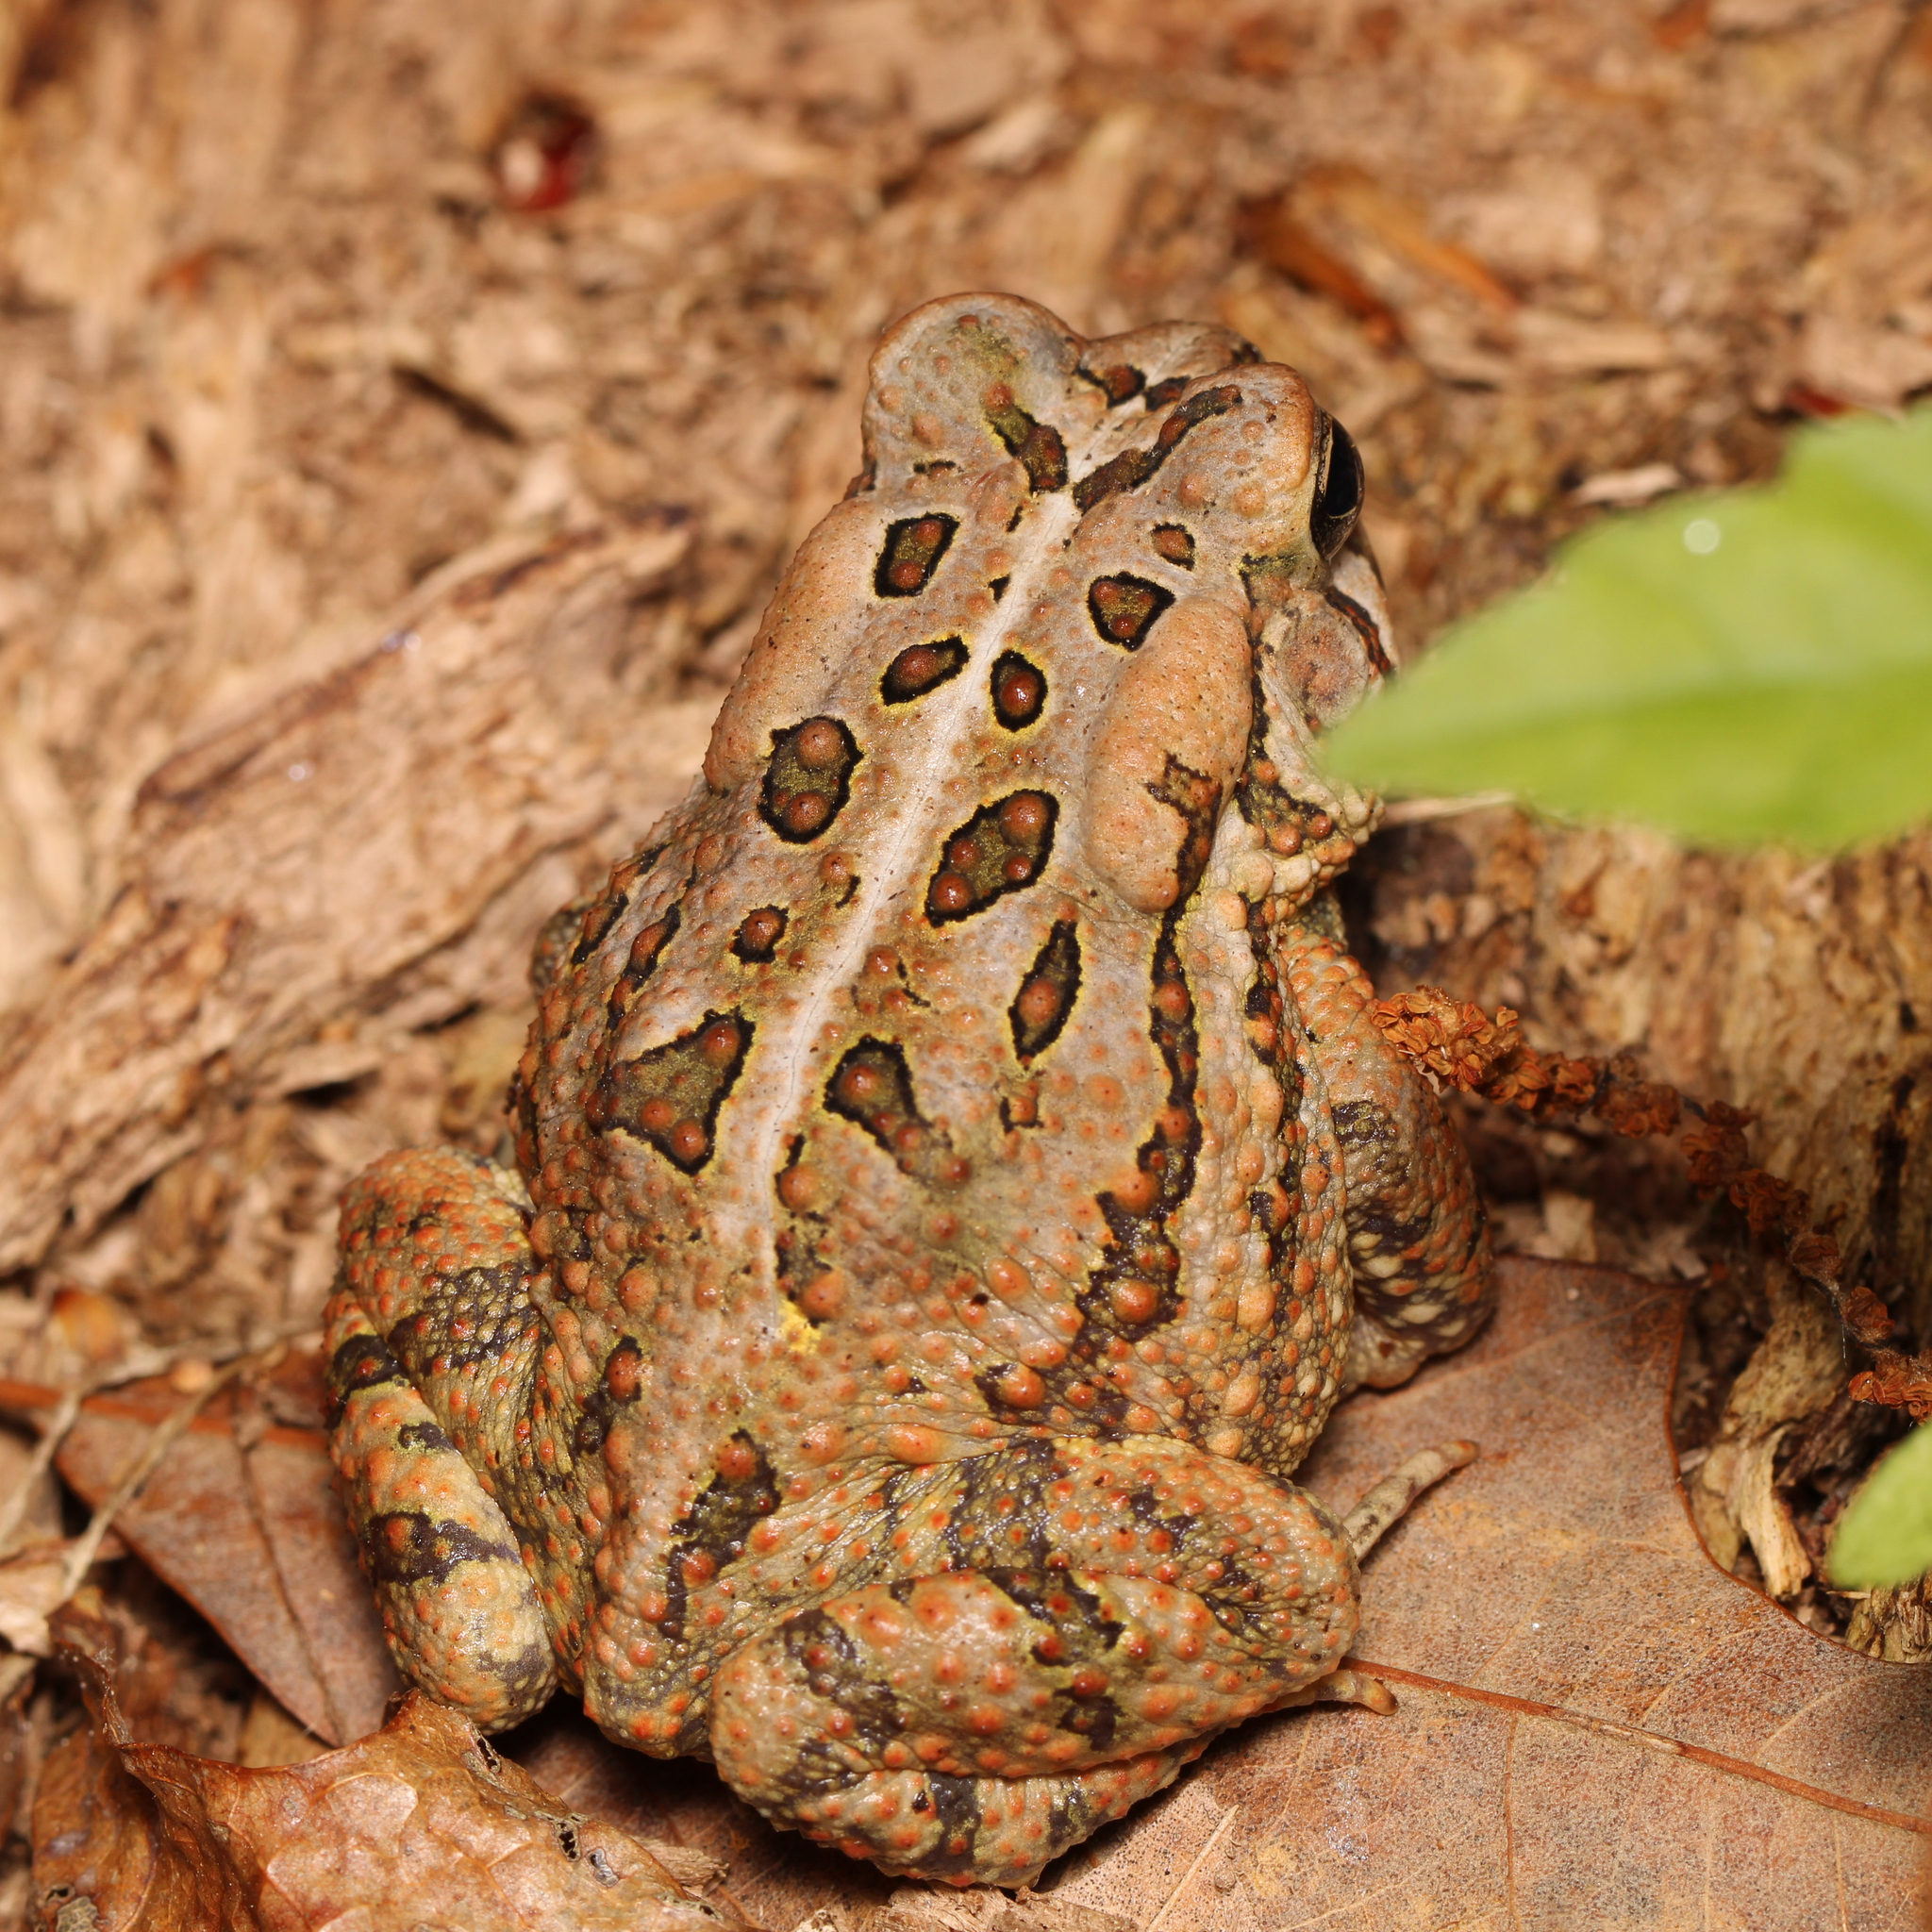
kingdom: Animalia
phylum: Chordata
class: Amphibia
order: Anura
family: Bufonidae
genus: Anaxyrus
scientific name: Anaxyrus fowleri
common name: Fowler's toad
